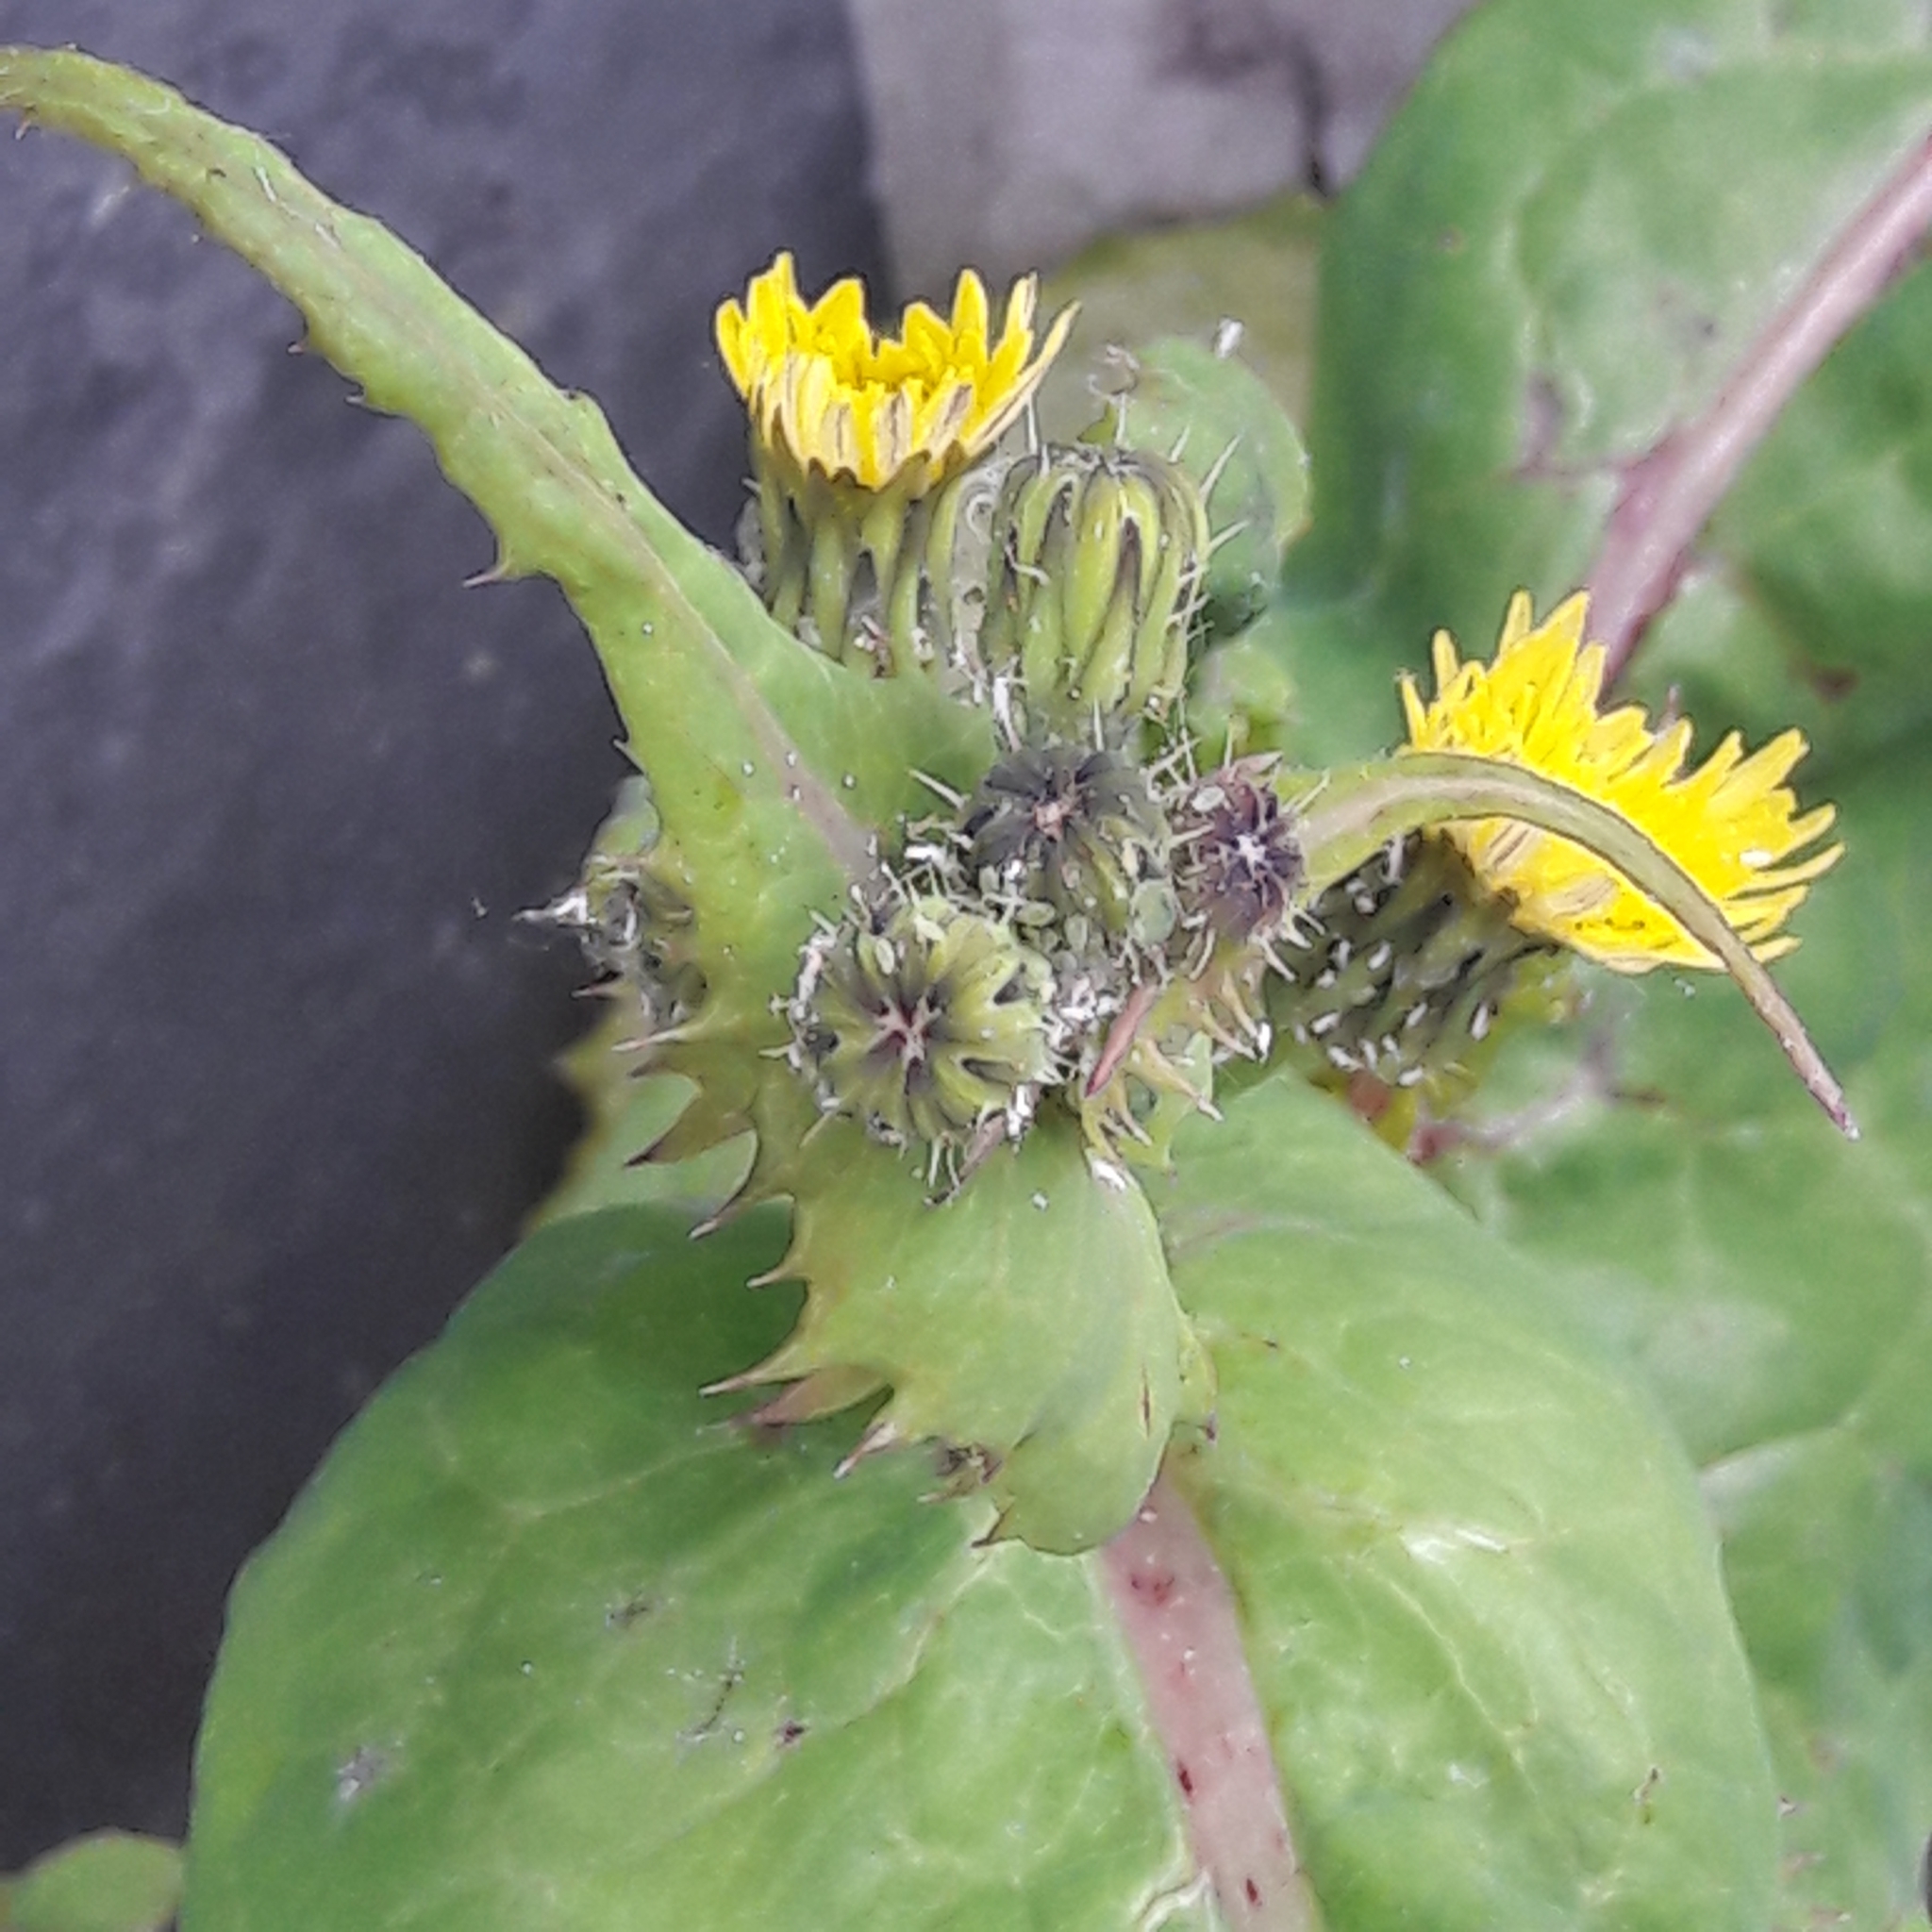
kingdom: Plantae
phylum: Tracheophyta
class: Magnoliopsida
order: Asterales
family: Asteraceae
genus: Sonchus
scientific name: Sonchus oleraceus
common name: Common sowthistle
